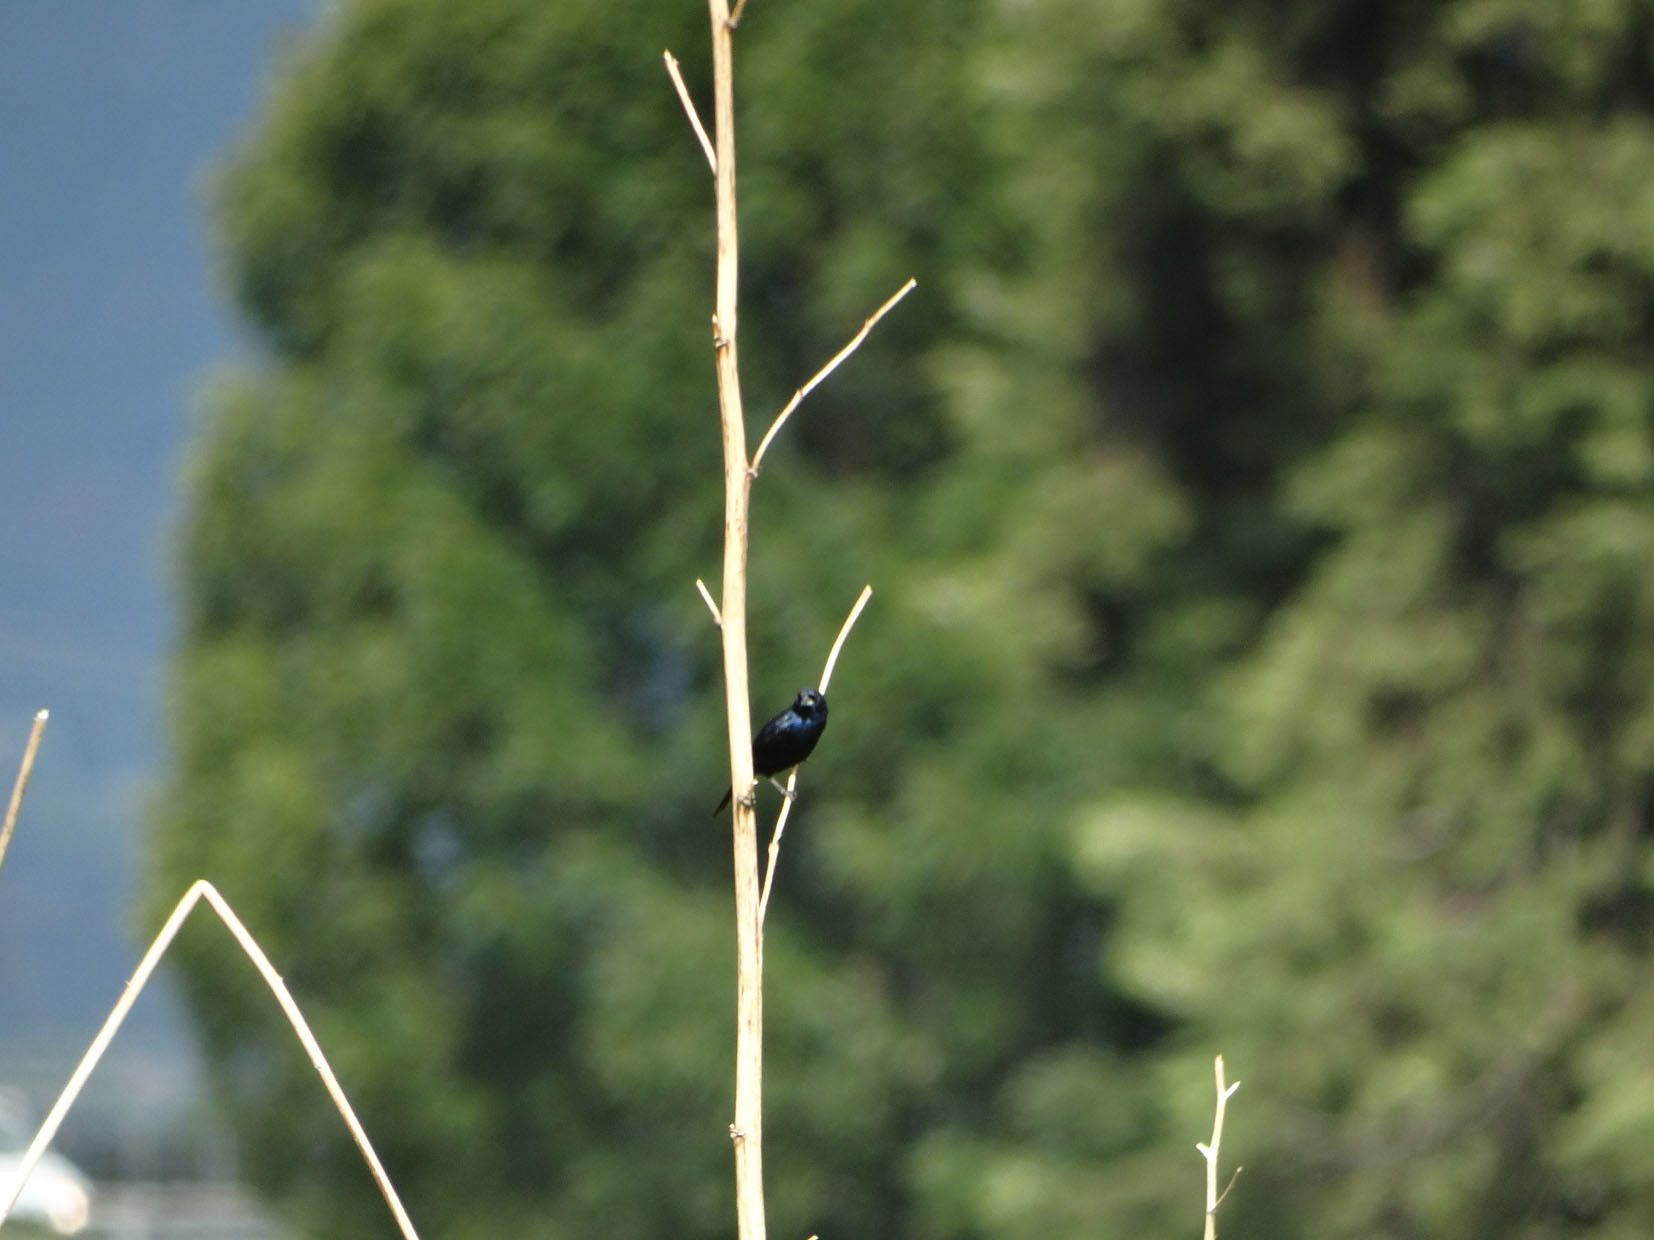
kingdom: Animalia
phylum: Chordata
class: Aves
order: Passeriformes
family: Thraupidae
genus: Volatinia
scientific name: Volatinia jacarina
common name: Blue-black grassquit
